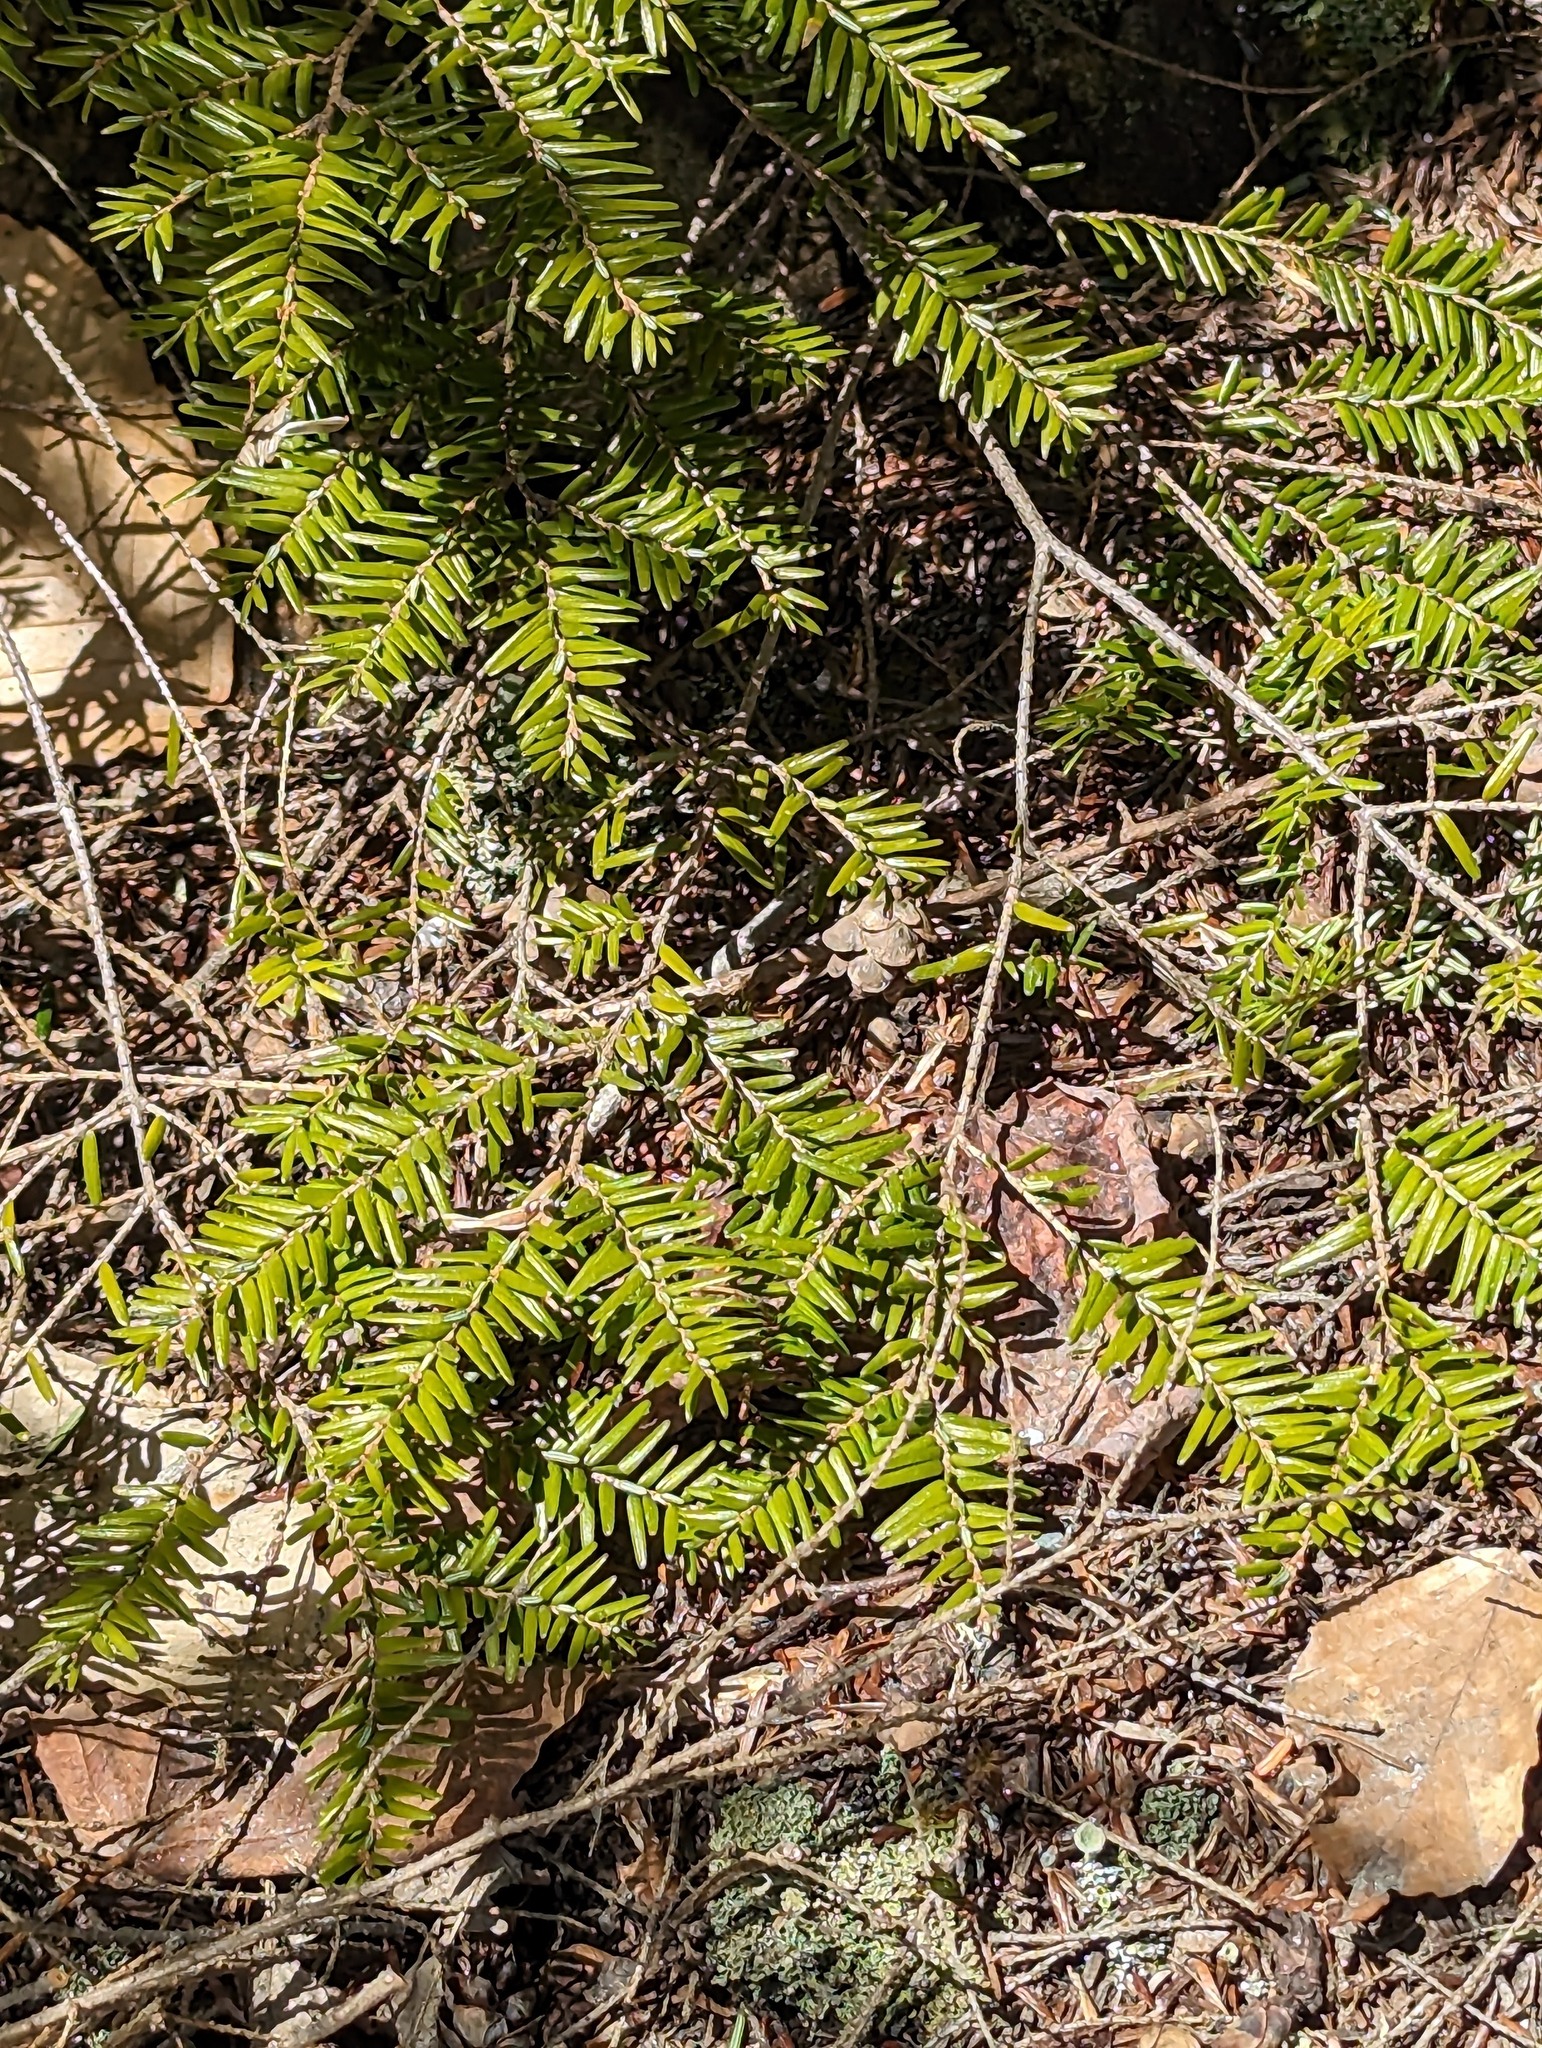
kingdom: Plantae
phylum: Tracheophyta
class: Pinopsida
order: Pinales
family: Pinaceae
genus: Tsuga
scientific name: Tsuga canadensis
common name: Eastern hemlock
